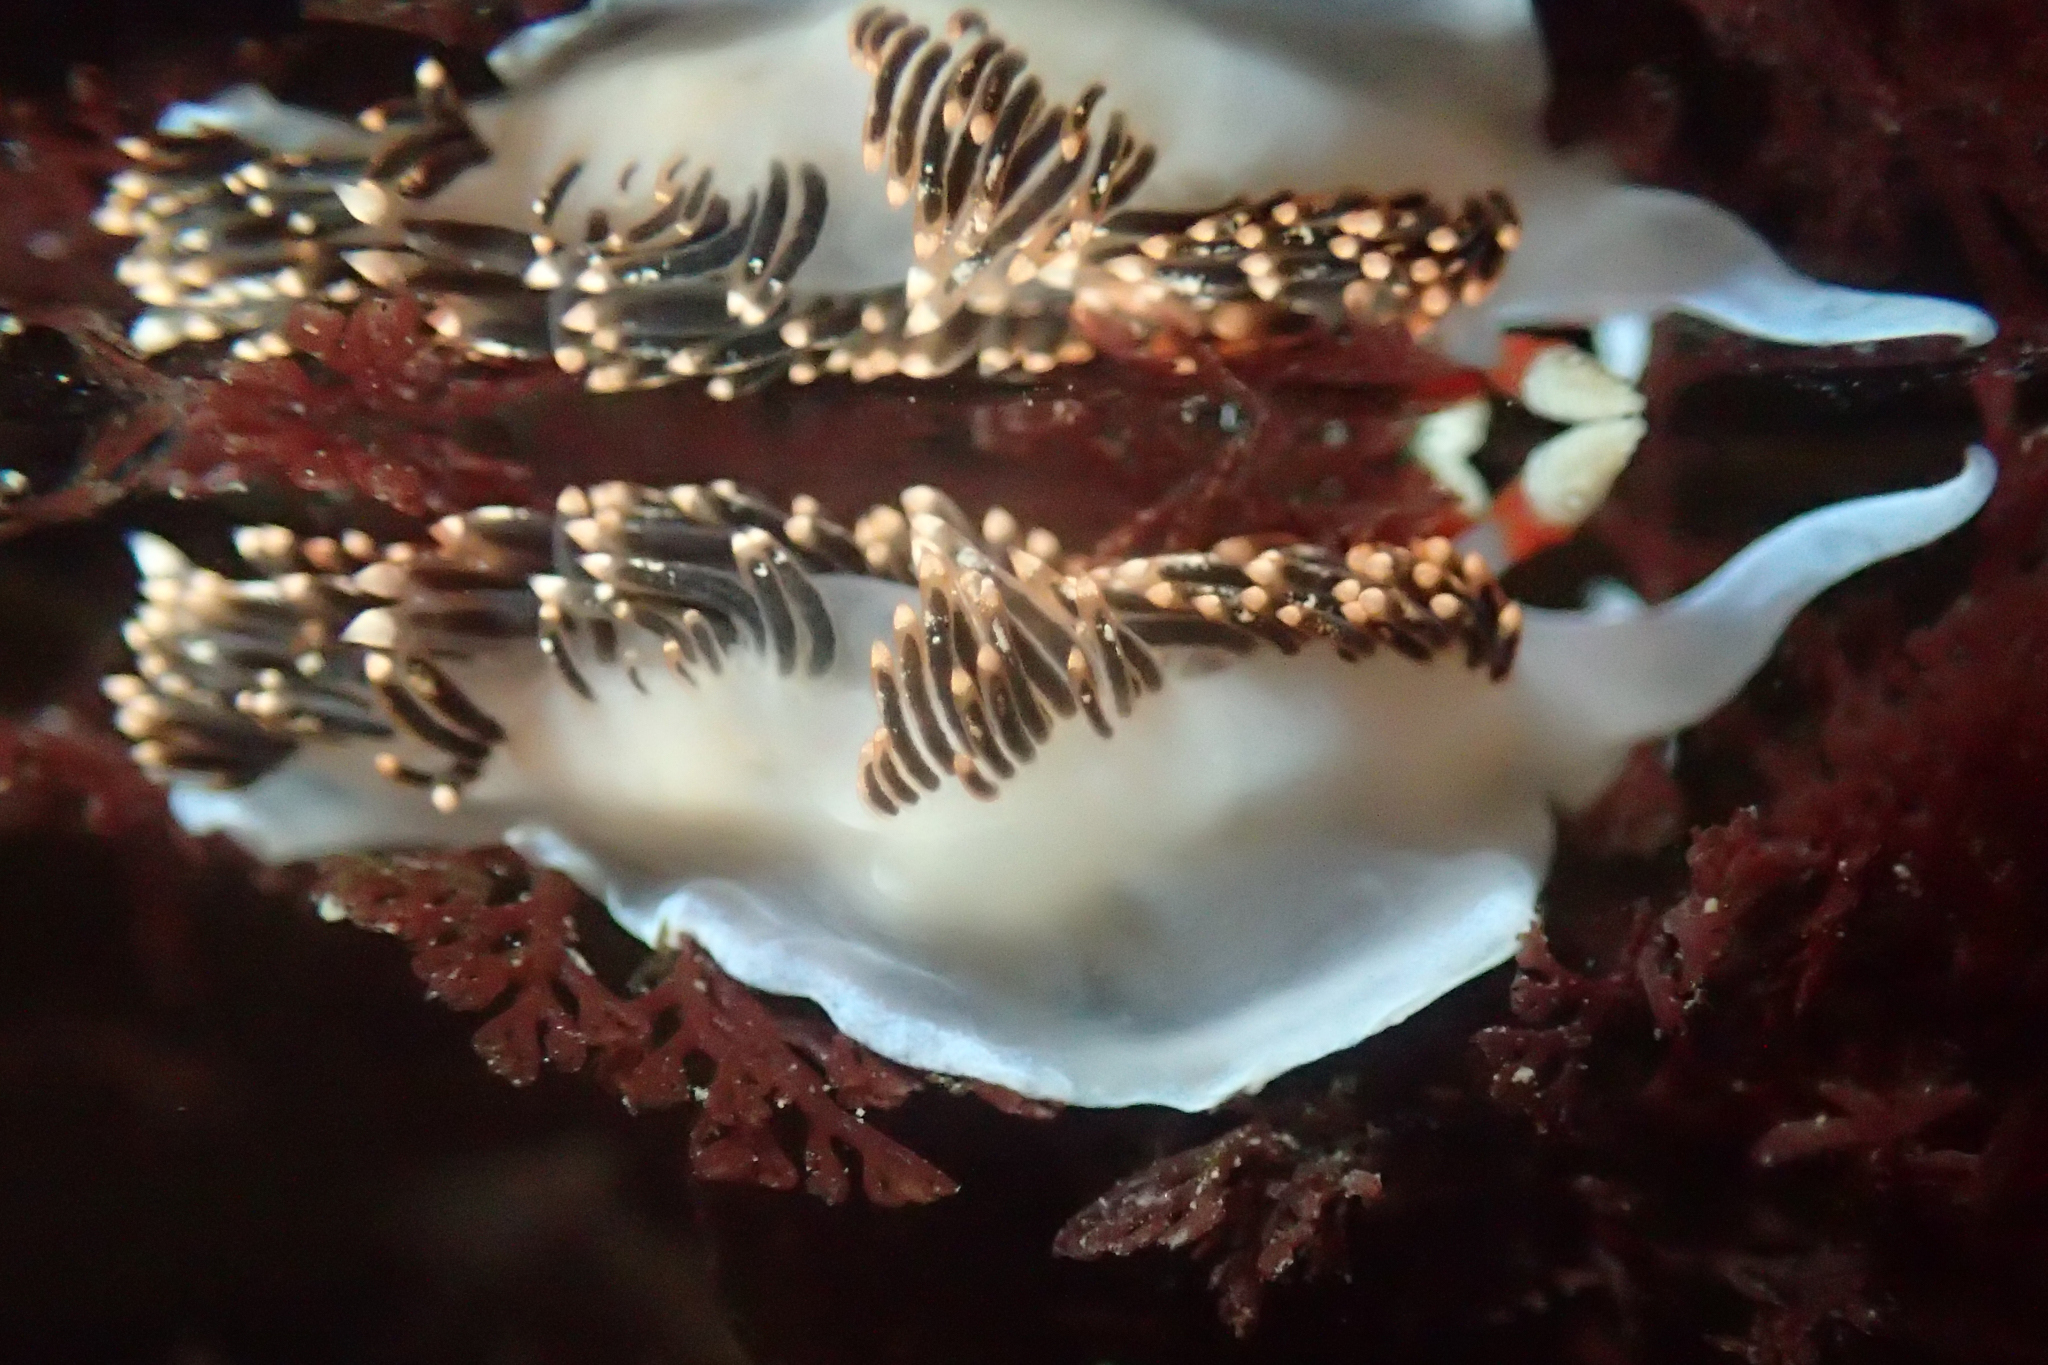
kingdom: Animalia
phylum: Mollusca
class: Gastropoda
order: Nudibranchia
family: Facelinidae
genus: Phidiana
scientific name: Phidiana hiltoni
